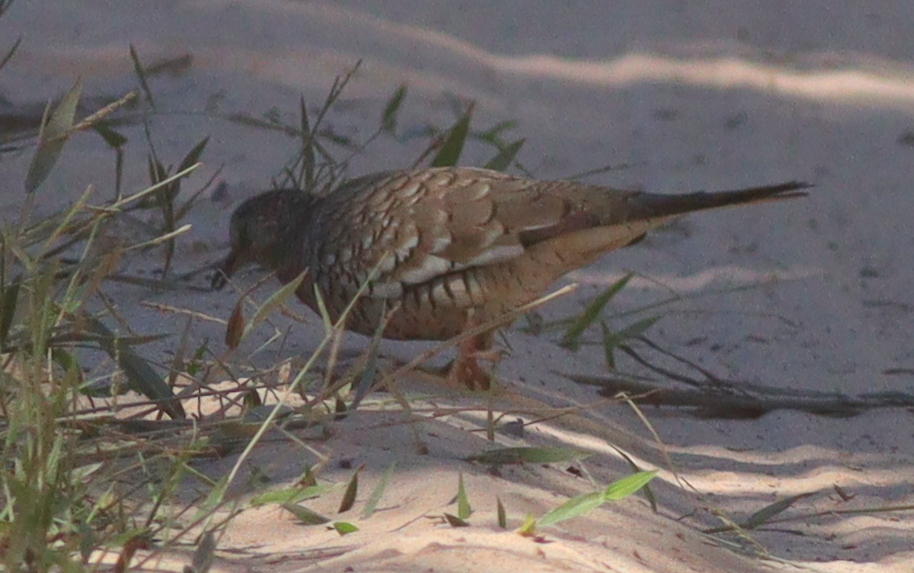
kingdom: Animalia
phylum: Chordata
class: Aves
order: Columbiformes
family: Columbidae
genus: Columbina
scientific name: Columbina squammata
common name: Scaled dove
